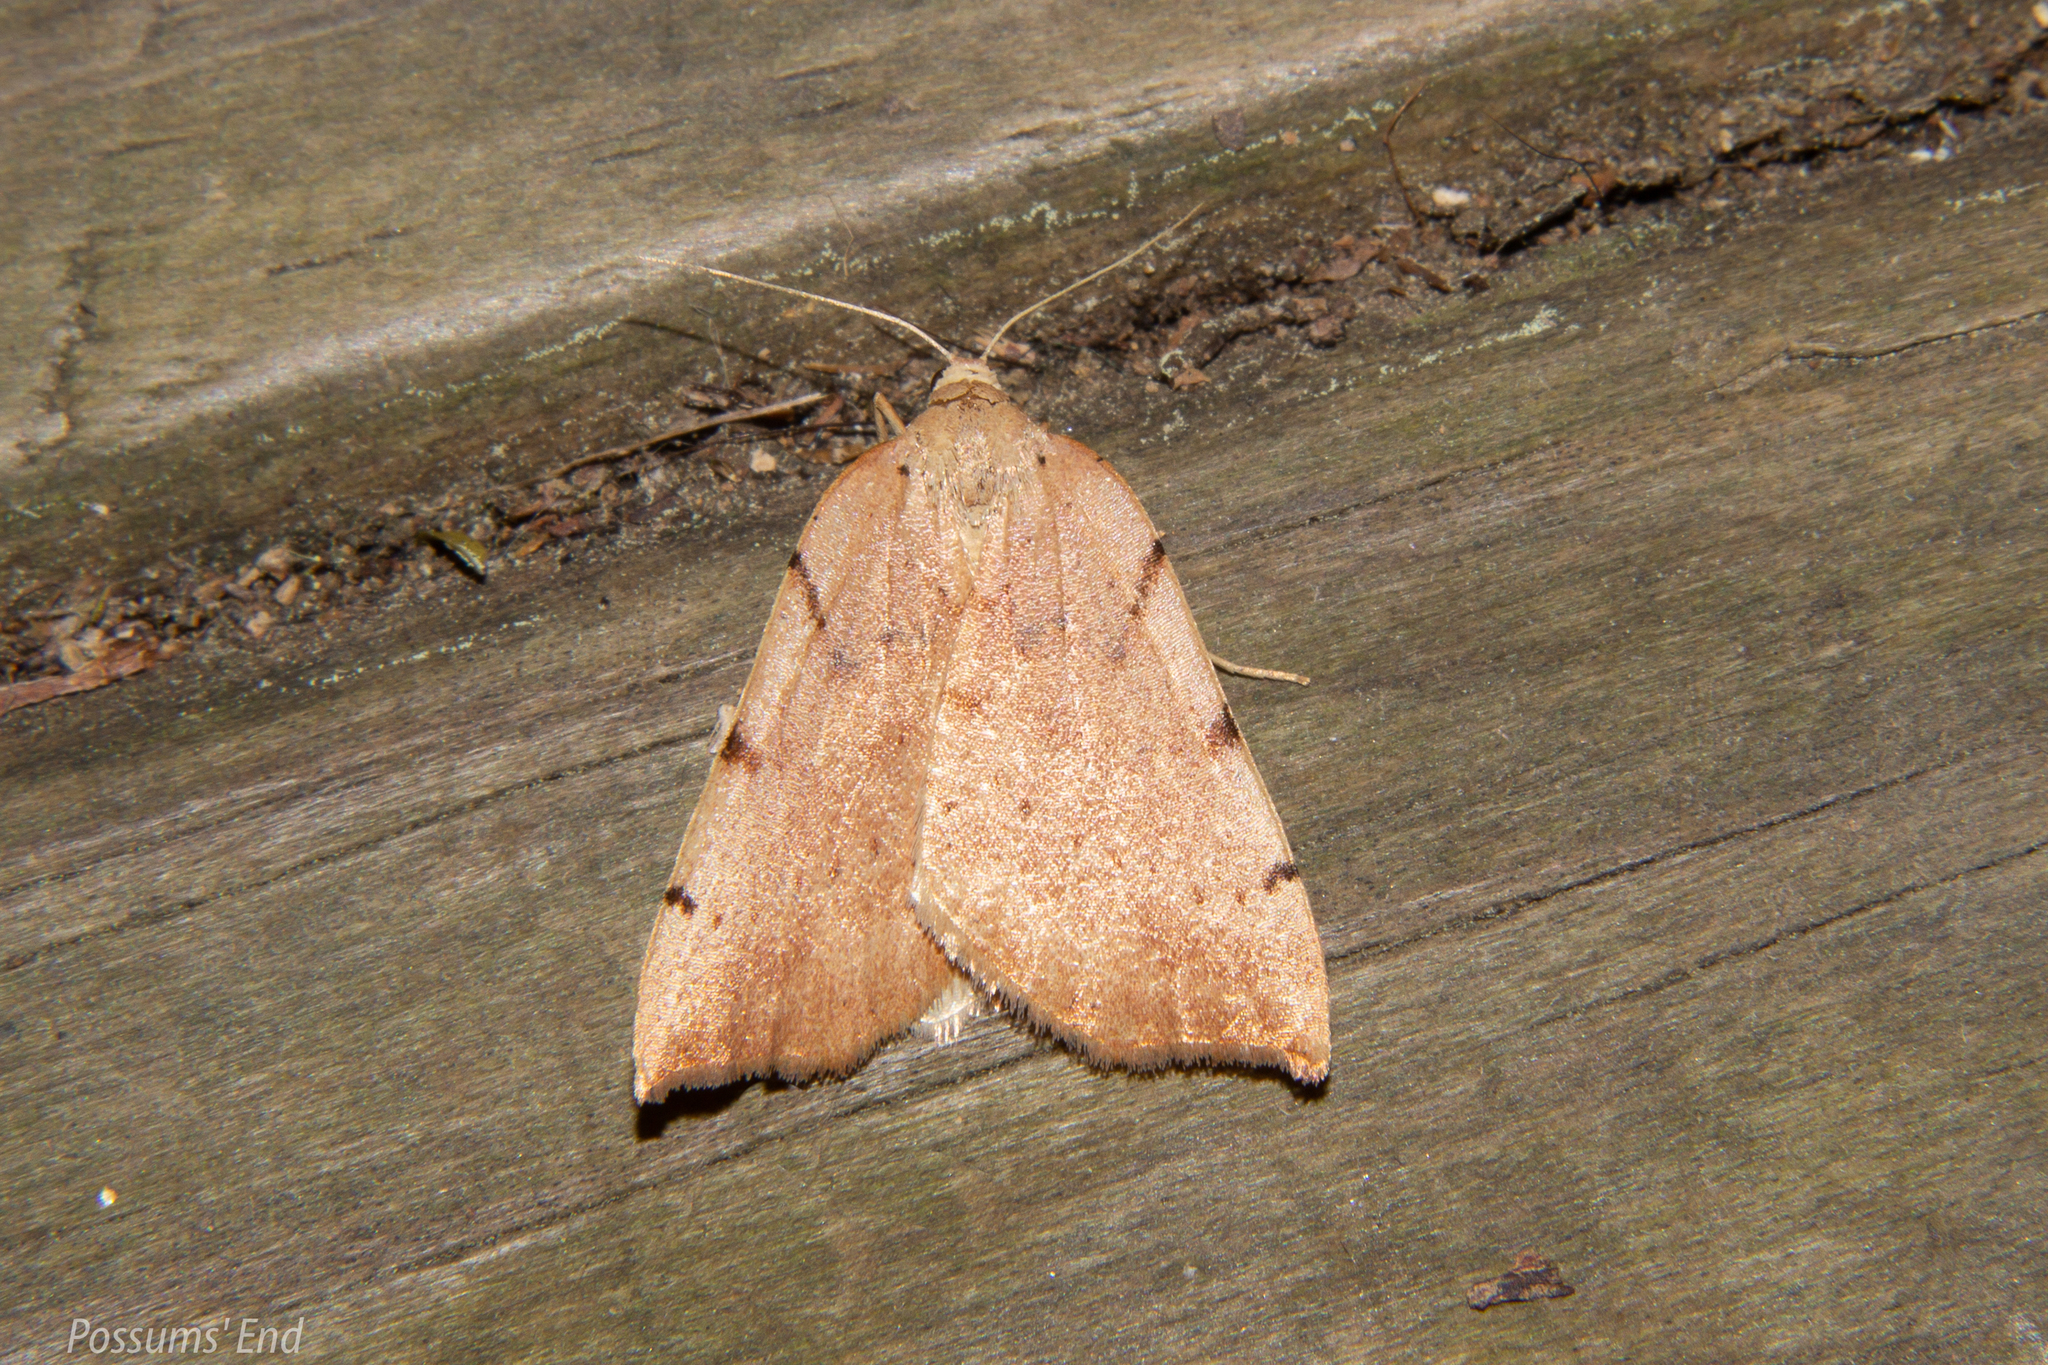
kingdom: Animalia
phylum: Arthropoda
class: Insecta
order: Lepidoptera
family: Geometridae
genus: Sestra
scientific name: Sestra humeraria
